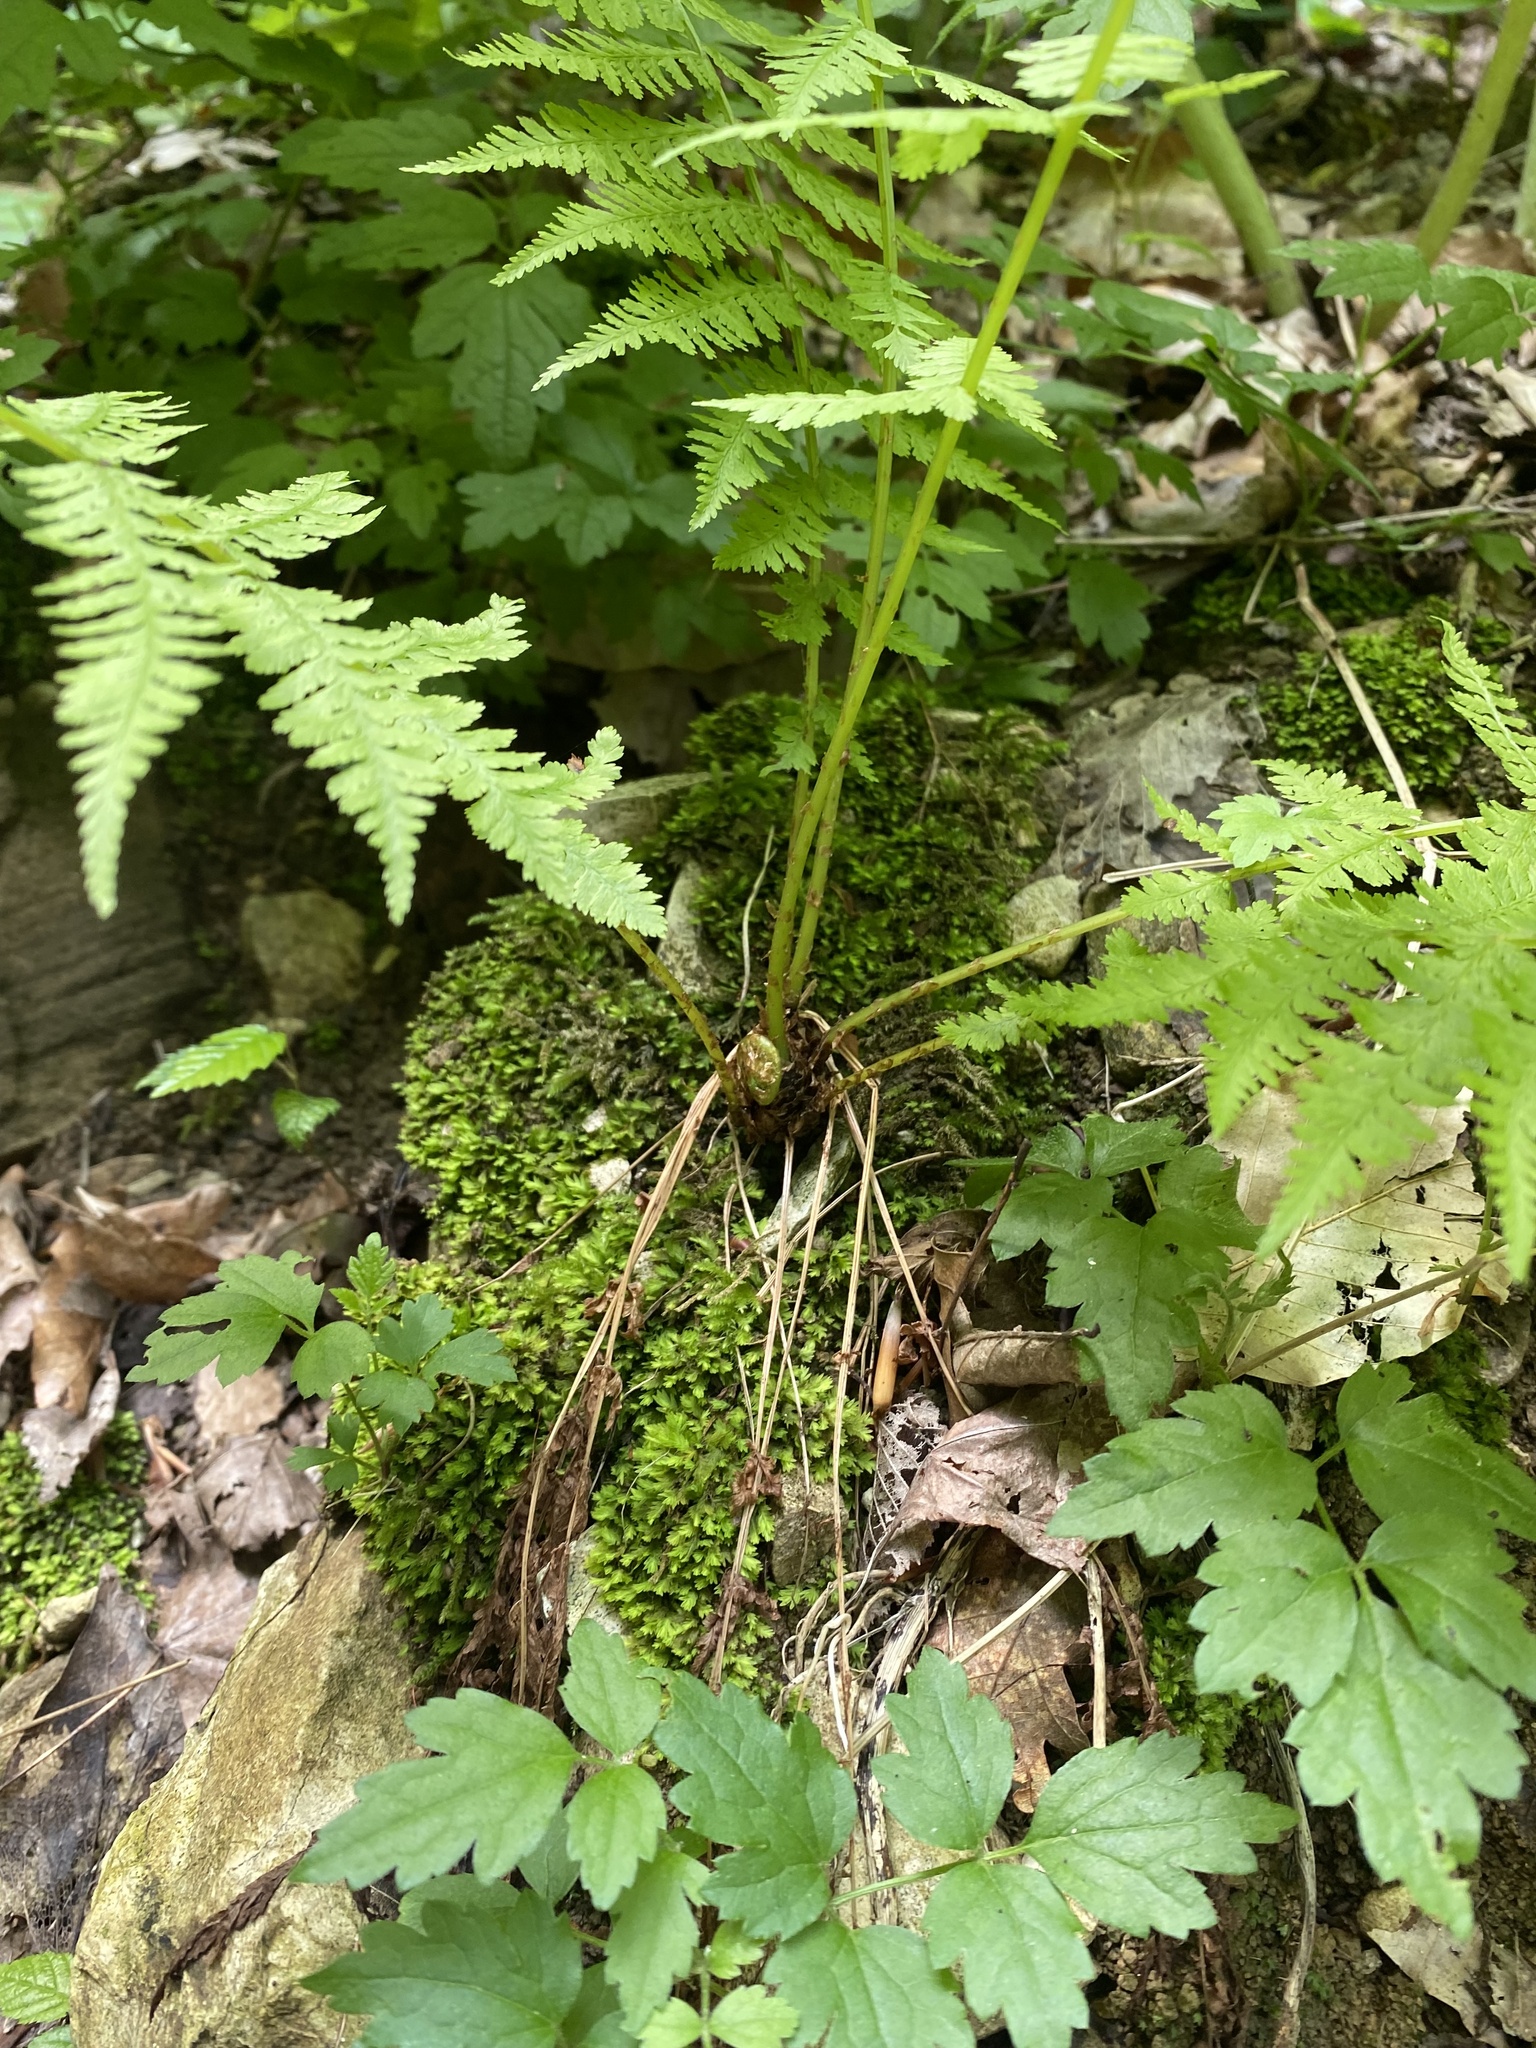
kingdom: Plantae
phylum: Tracheophyta
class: Polypodiopsida
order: Polypodiales
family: Athyriaceae
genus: Athyrium
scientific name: Athyrium filix-femina
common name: Lady fern
